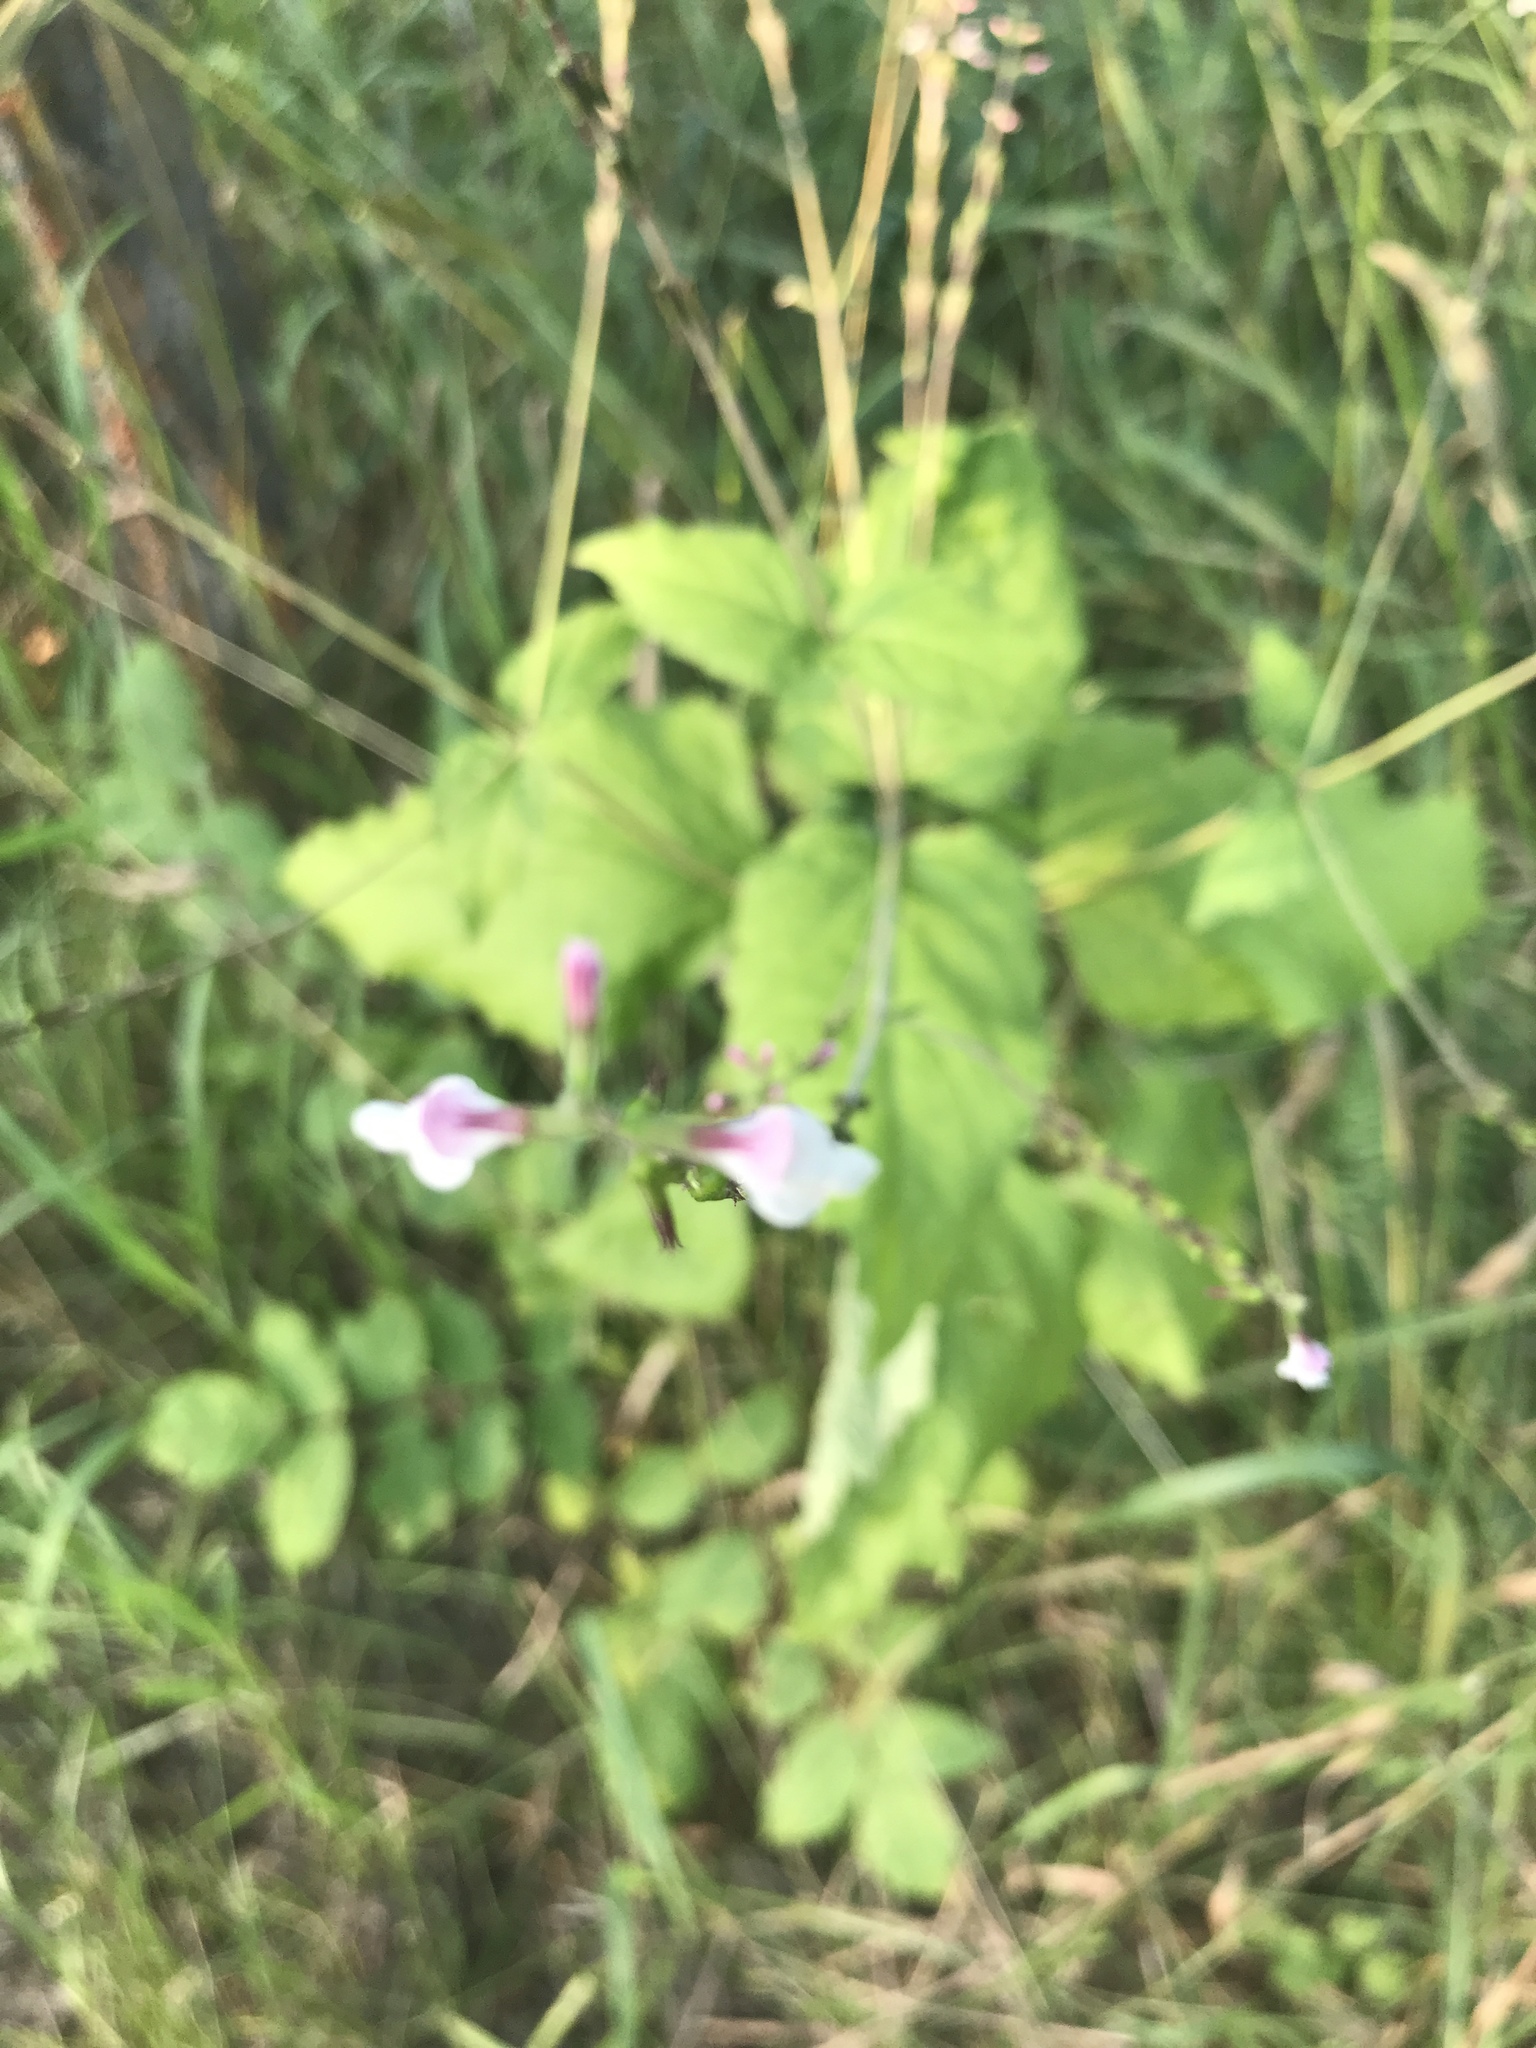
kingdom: Plantae
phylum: Tracheophyta
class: Magnoliopsida
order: Lamiales
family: Phrymaceae
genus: Phryma
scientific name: Phryma leptostachya
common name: American lopseed
